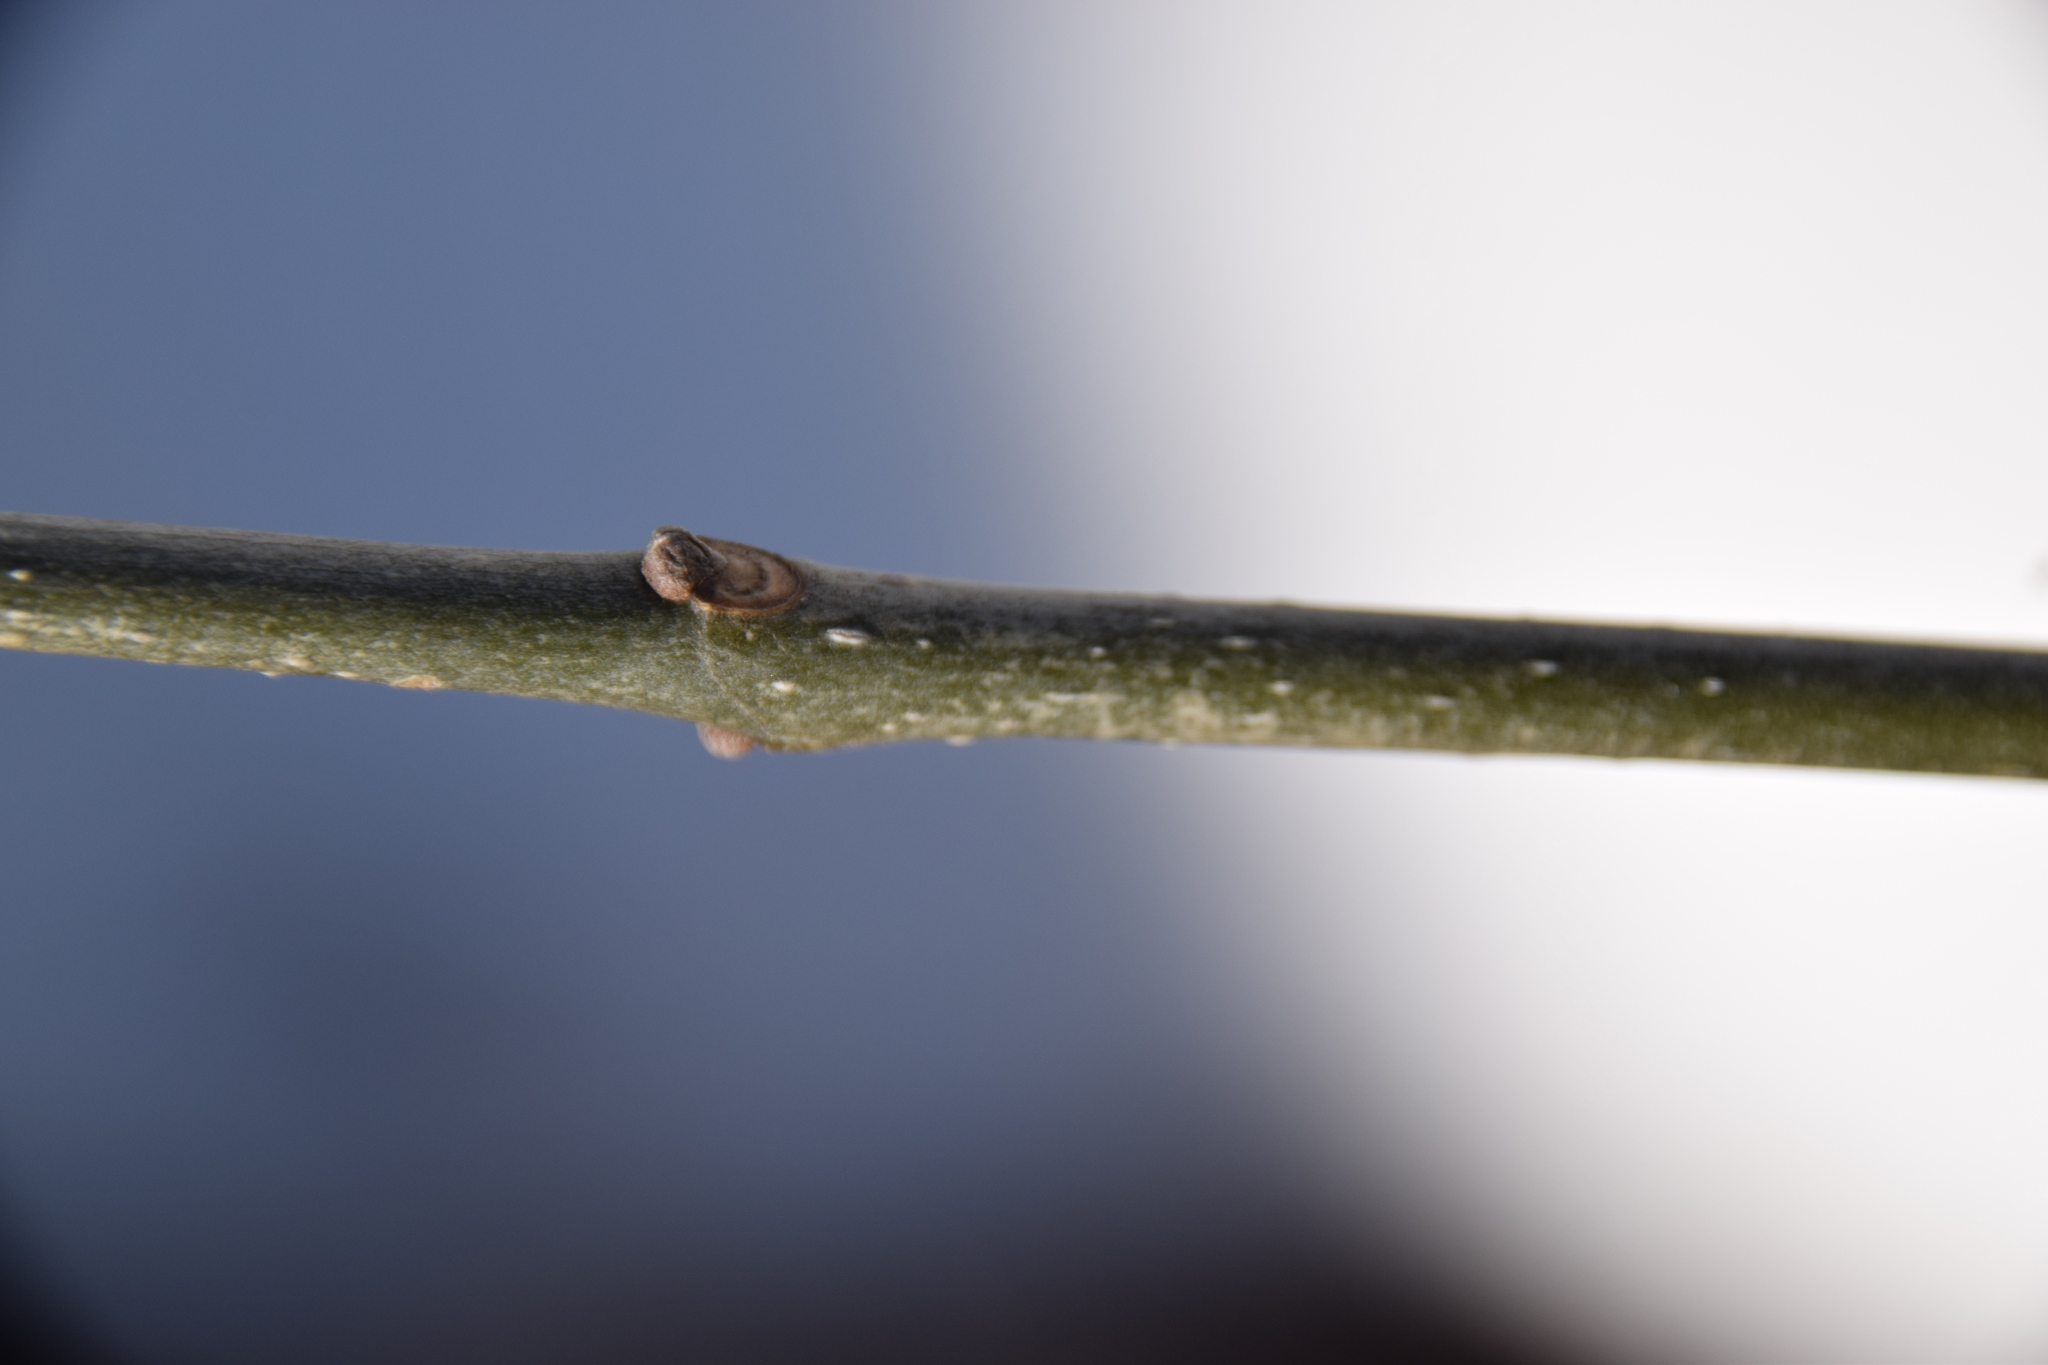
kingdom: Plantae
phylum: Tracheophyta
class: Magnoliopsida
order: Lamiales
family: Oleaceae
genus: Fraxinus
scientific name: Fraxinus pennsylvanica
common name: Green ash
